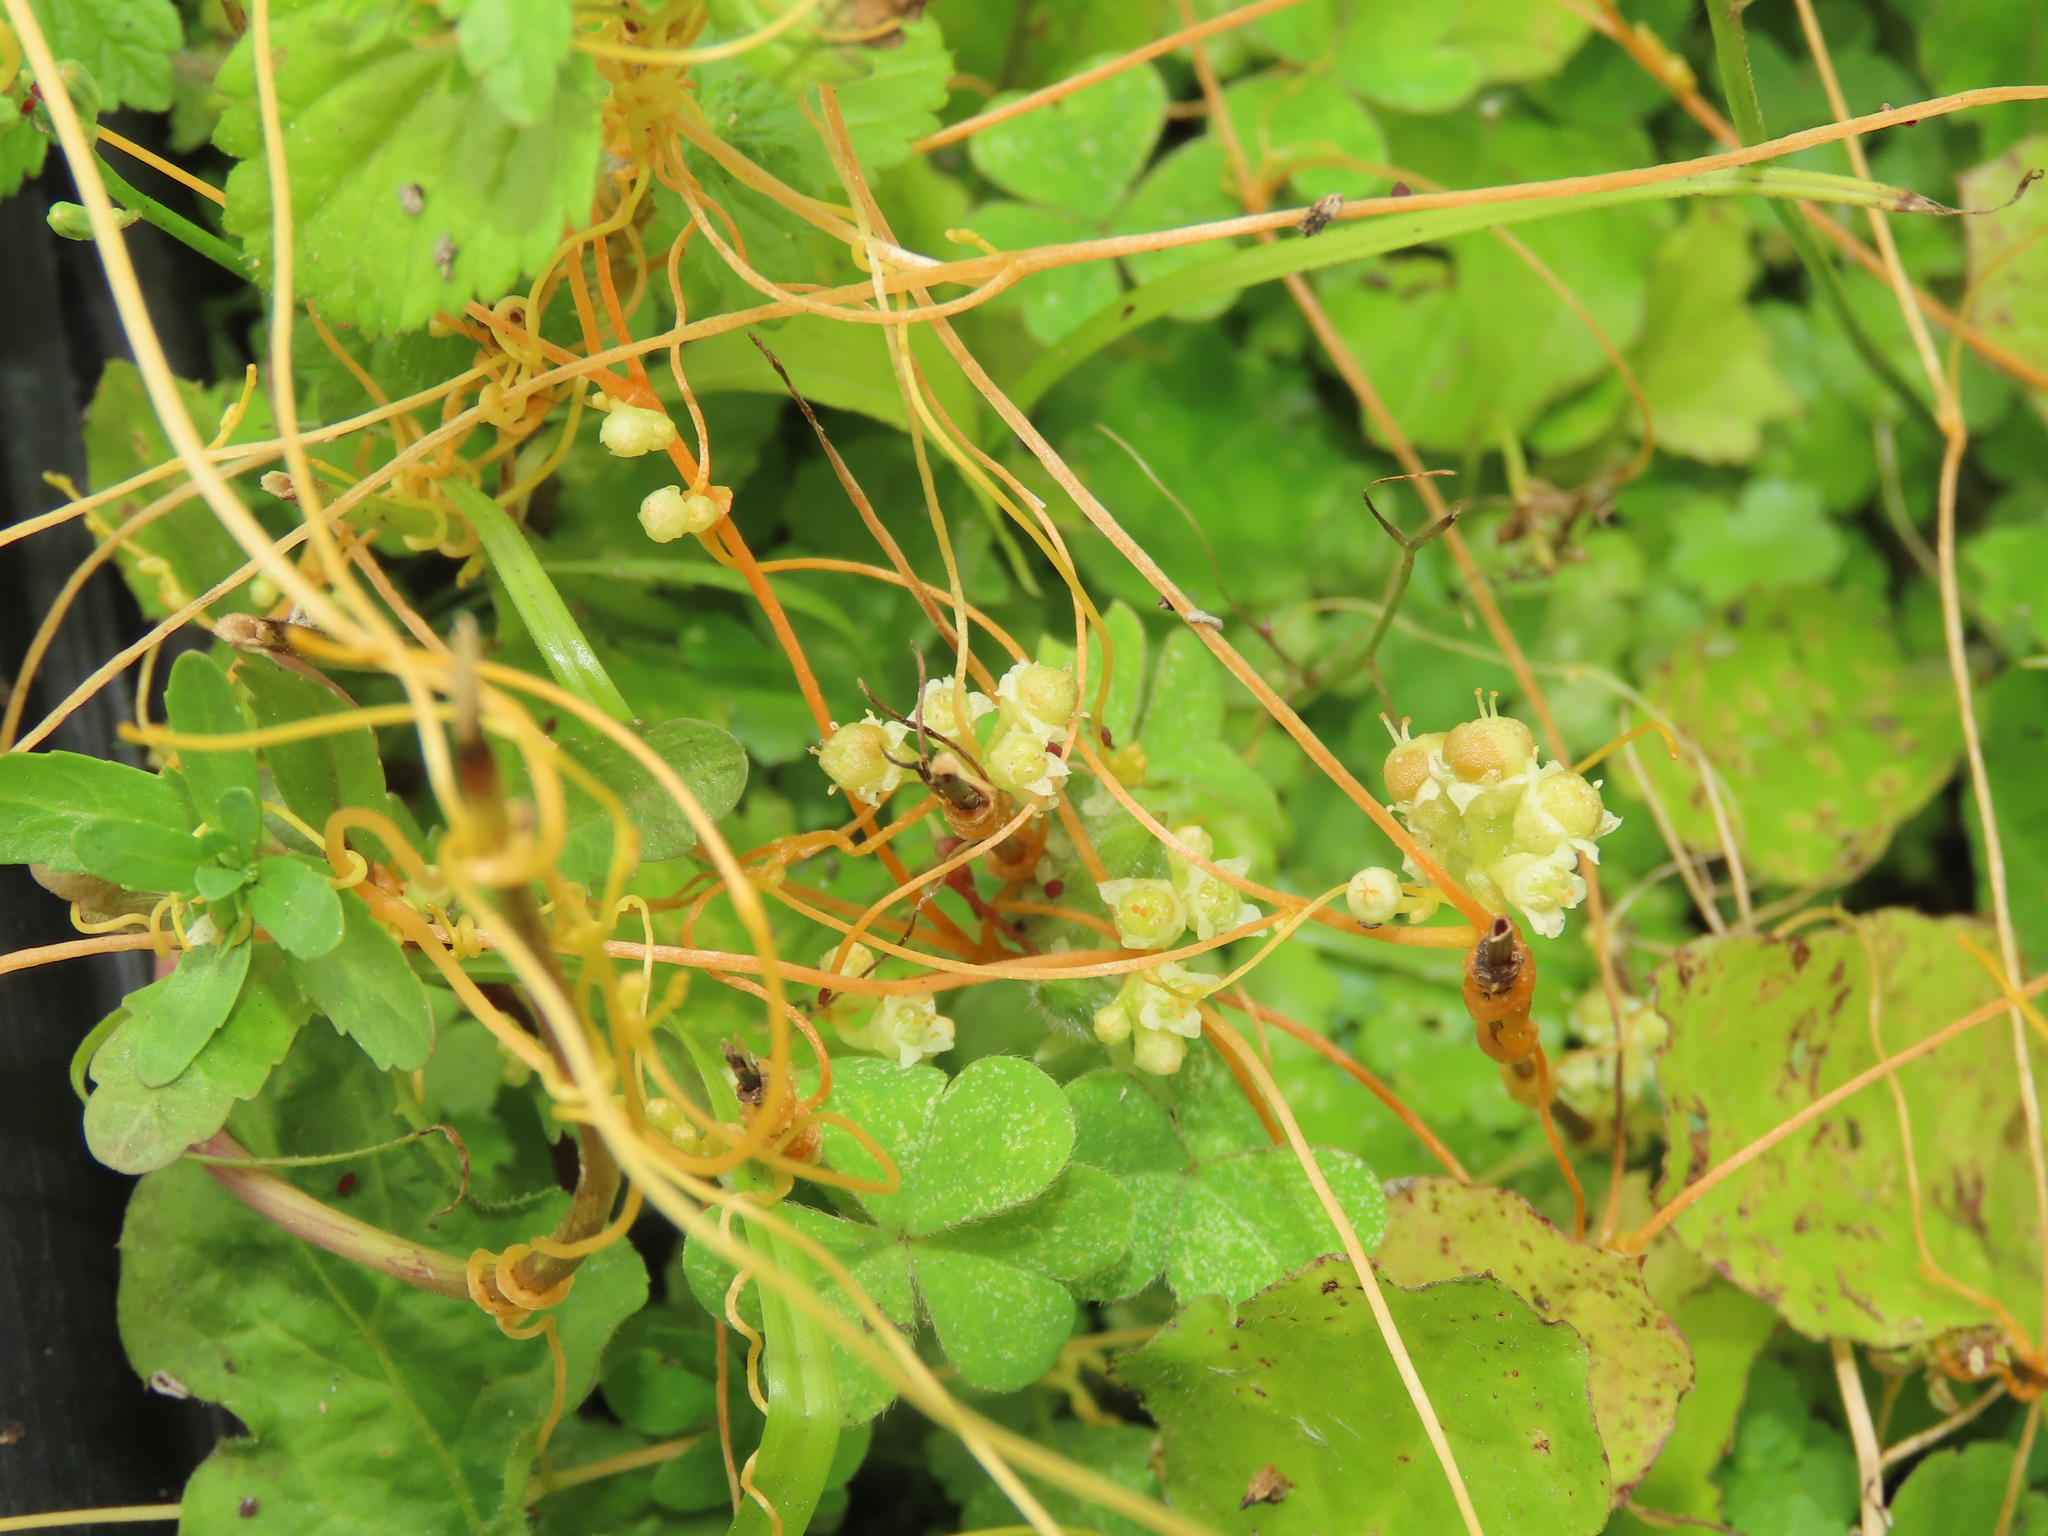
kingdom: Plantae
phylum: Tracheophyta
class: Magnoliopsida
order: Solanales
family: Convolvulaceae
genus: Cuscuta
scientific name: Cuscuta campestris
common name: Yellow dodder
